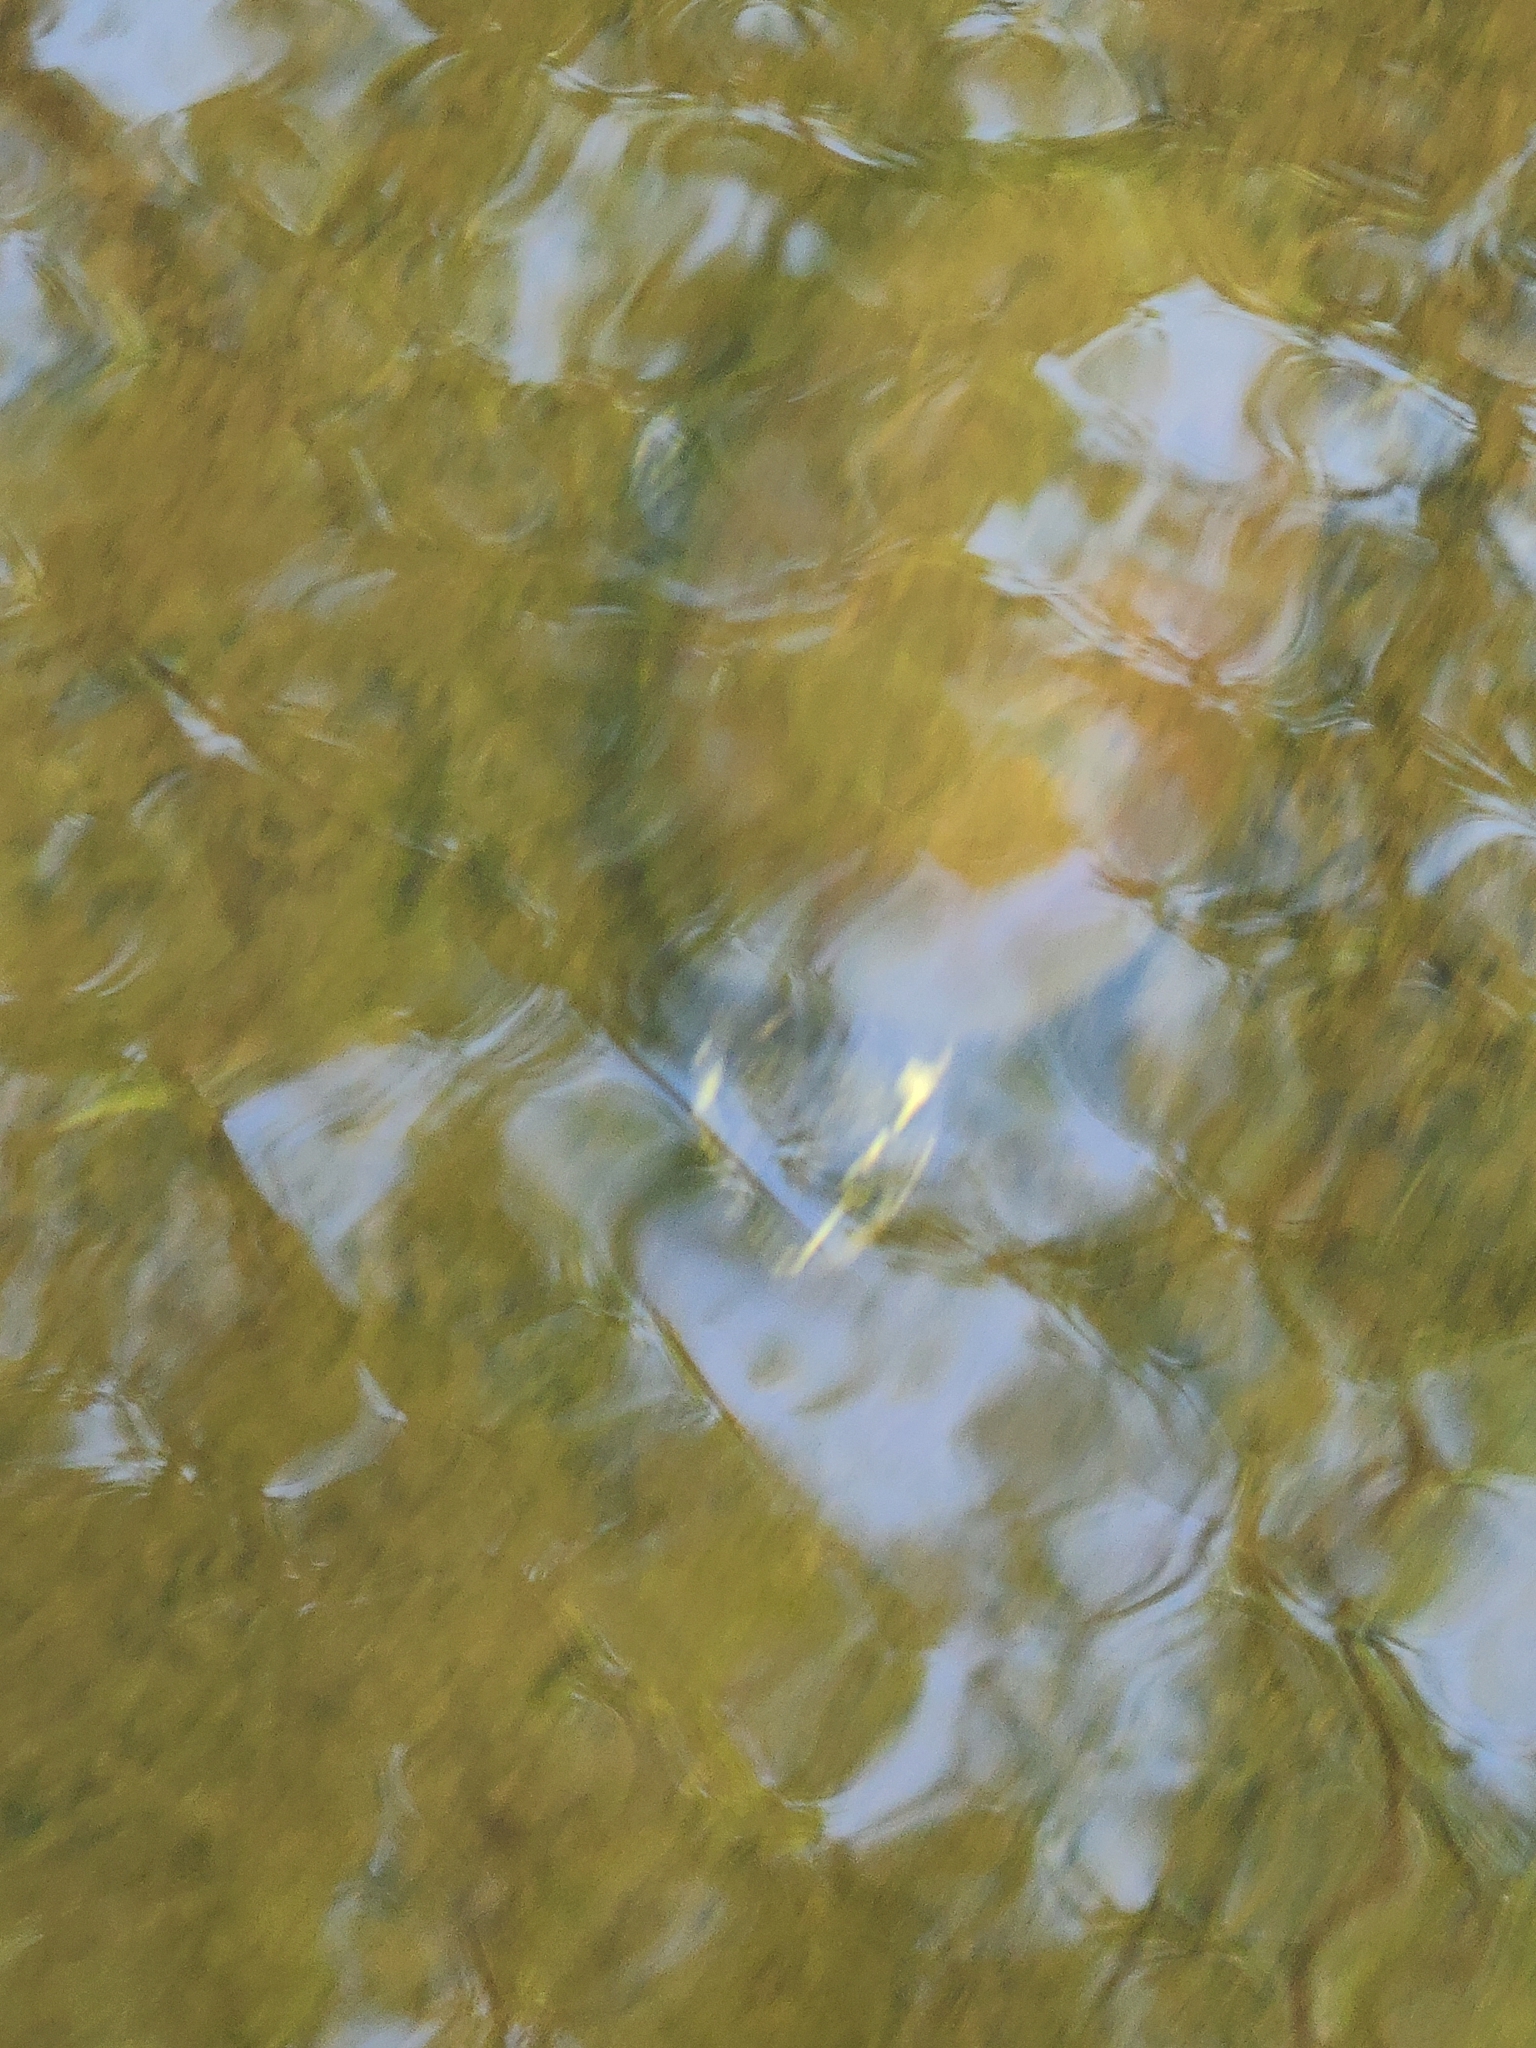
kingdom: Animalia
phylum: Chordata
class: Testudines
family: Kinosternidae
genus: Sternotherus
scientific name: Sternotherus odoratus
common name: Common musk turtle
